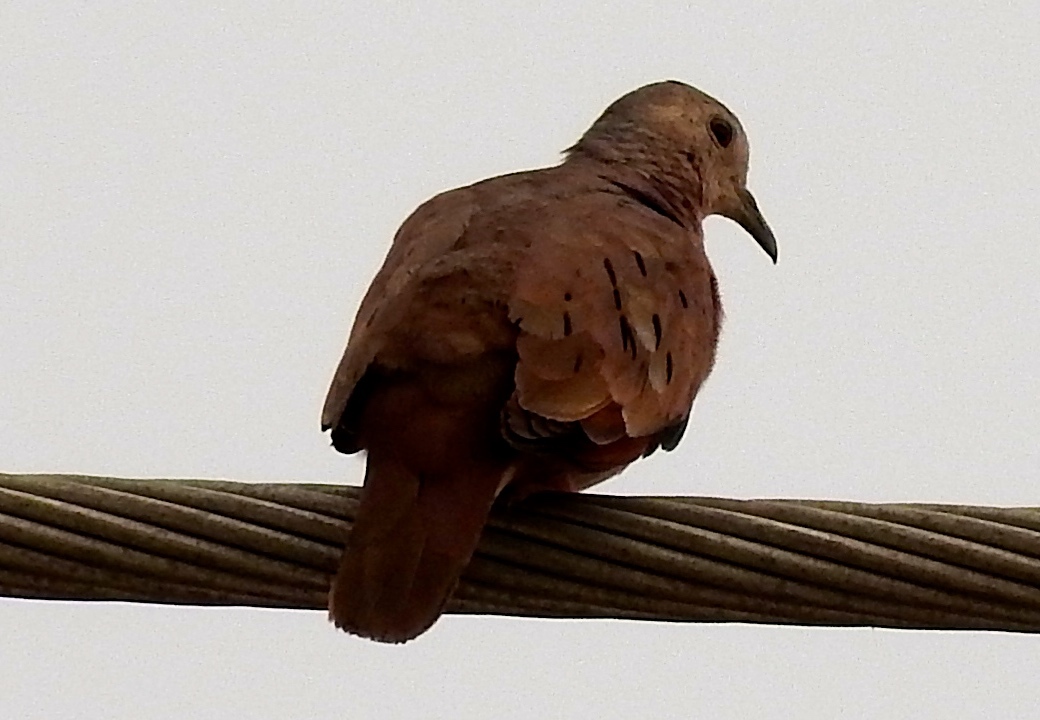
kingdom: Animalia
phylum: Chordata
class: Aves
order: Columbiformes
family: Columbidae
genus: Columbina
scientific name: Columbina talpacoti
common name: Ruddy ground dove
